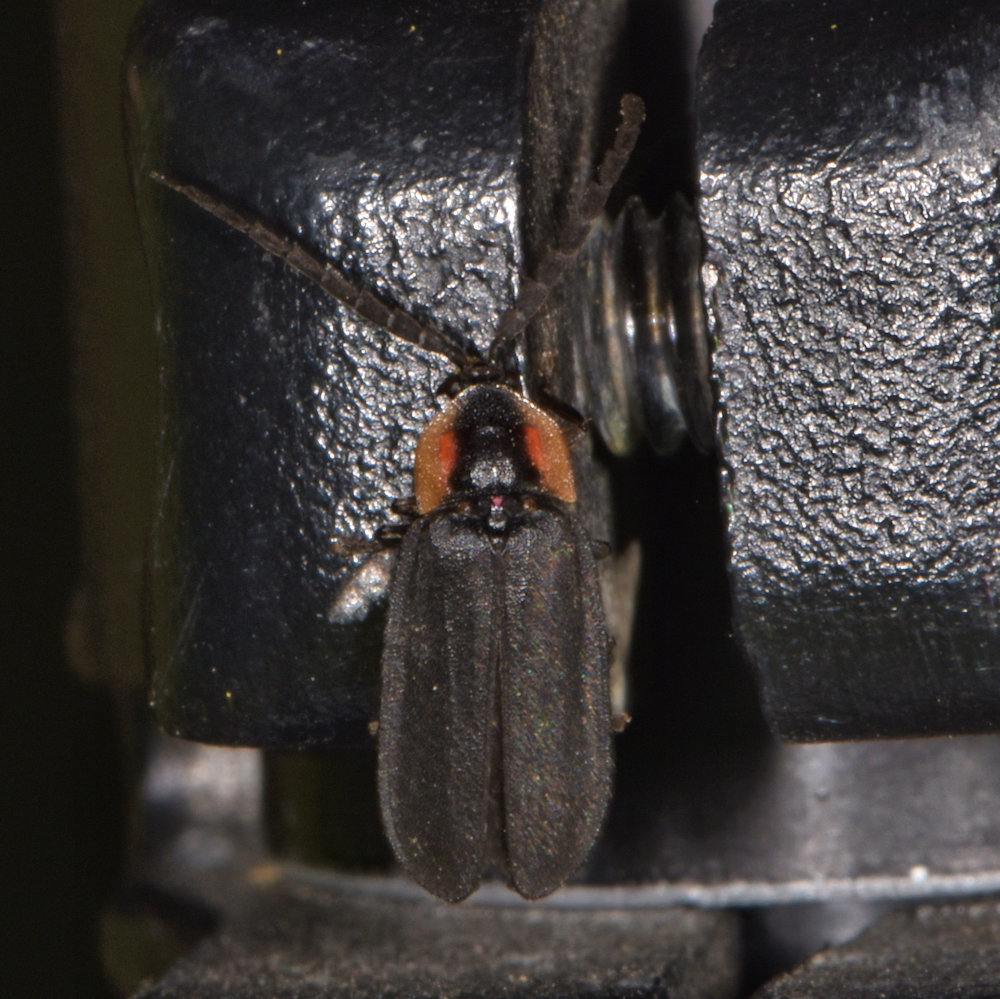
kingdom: Animalia
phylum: Arthropoda
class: Insecta
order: Coleoptera
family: Lampyridae
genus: Lucidota
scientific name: Lucidota atra
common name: Black firefly
